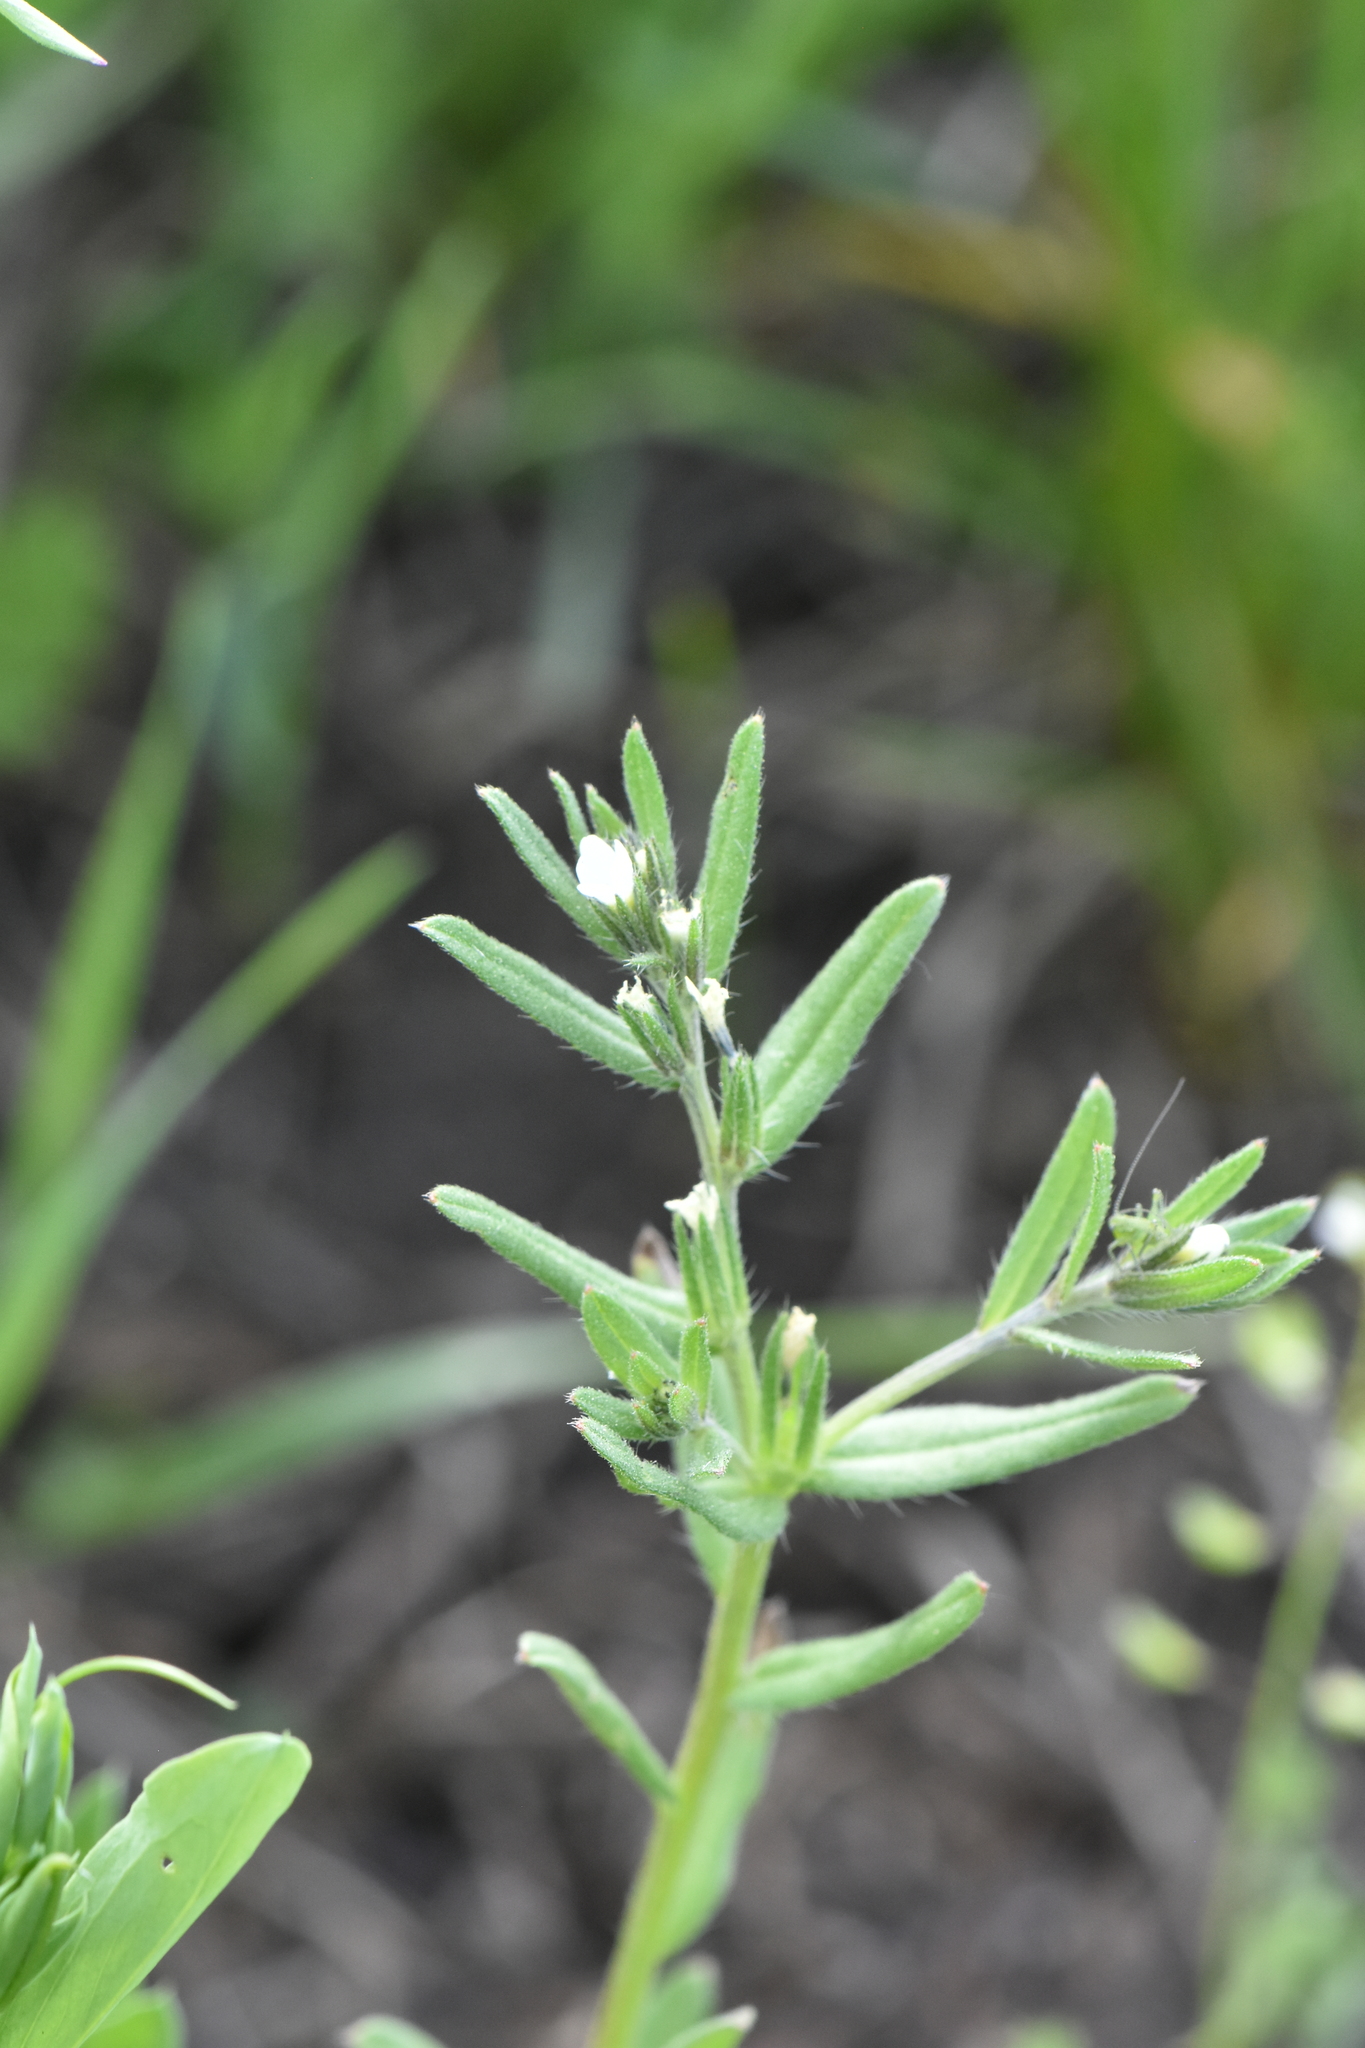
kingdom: Plantae
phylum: Tracheophyta
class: Magnoliopsida
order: Boraginales
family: Boraginaceae
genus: Buglossoides
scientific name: Buglossoides arvensis
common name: Corn gromwell
